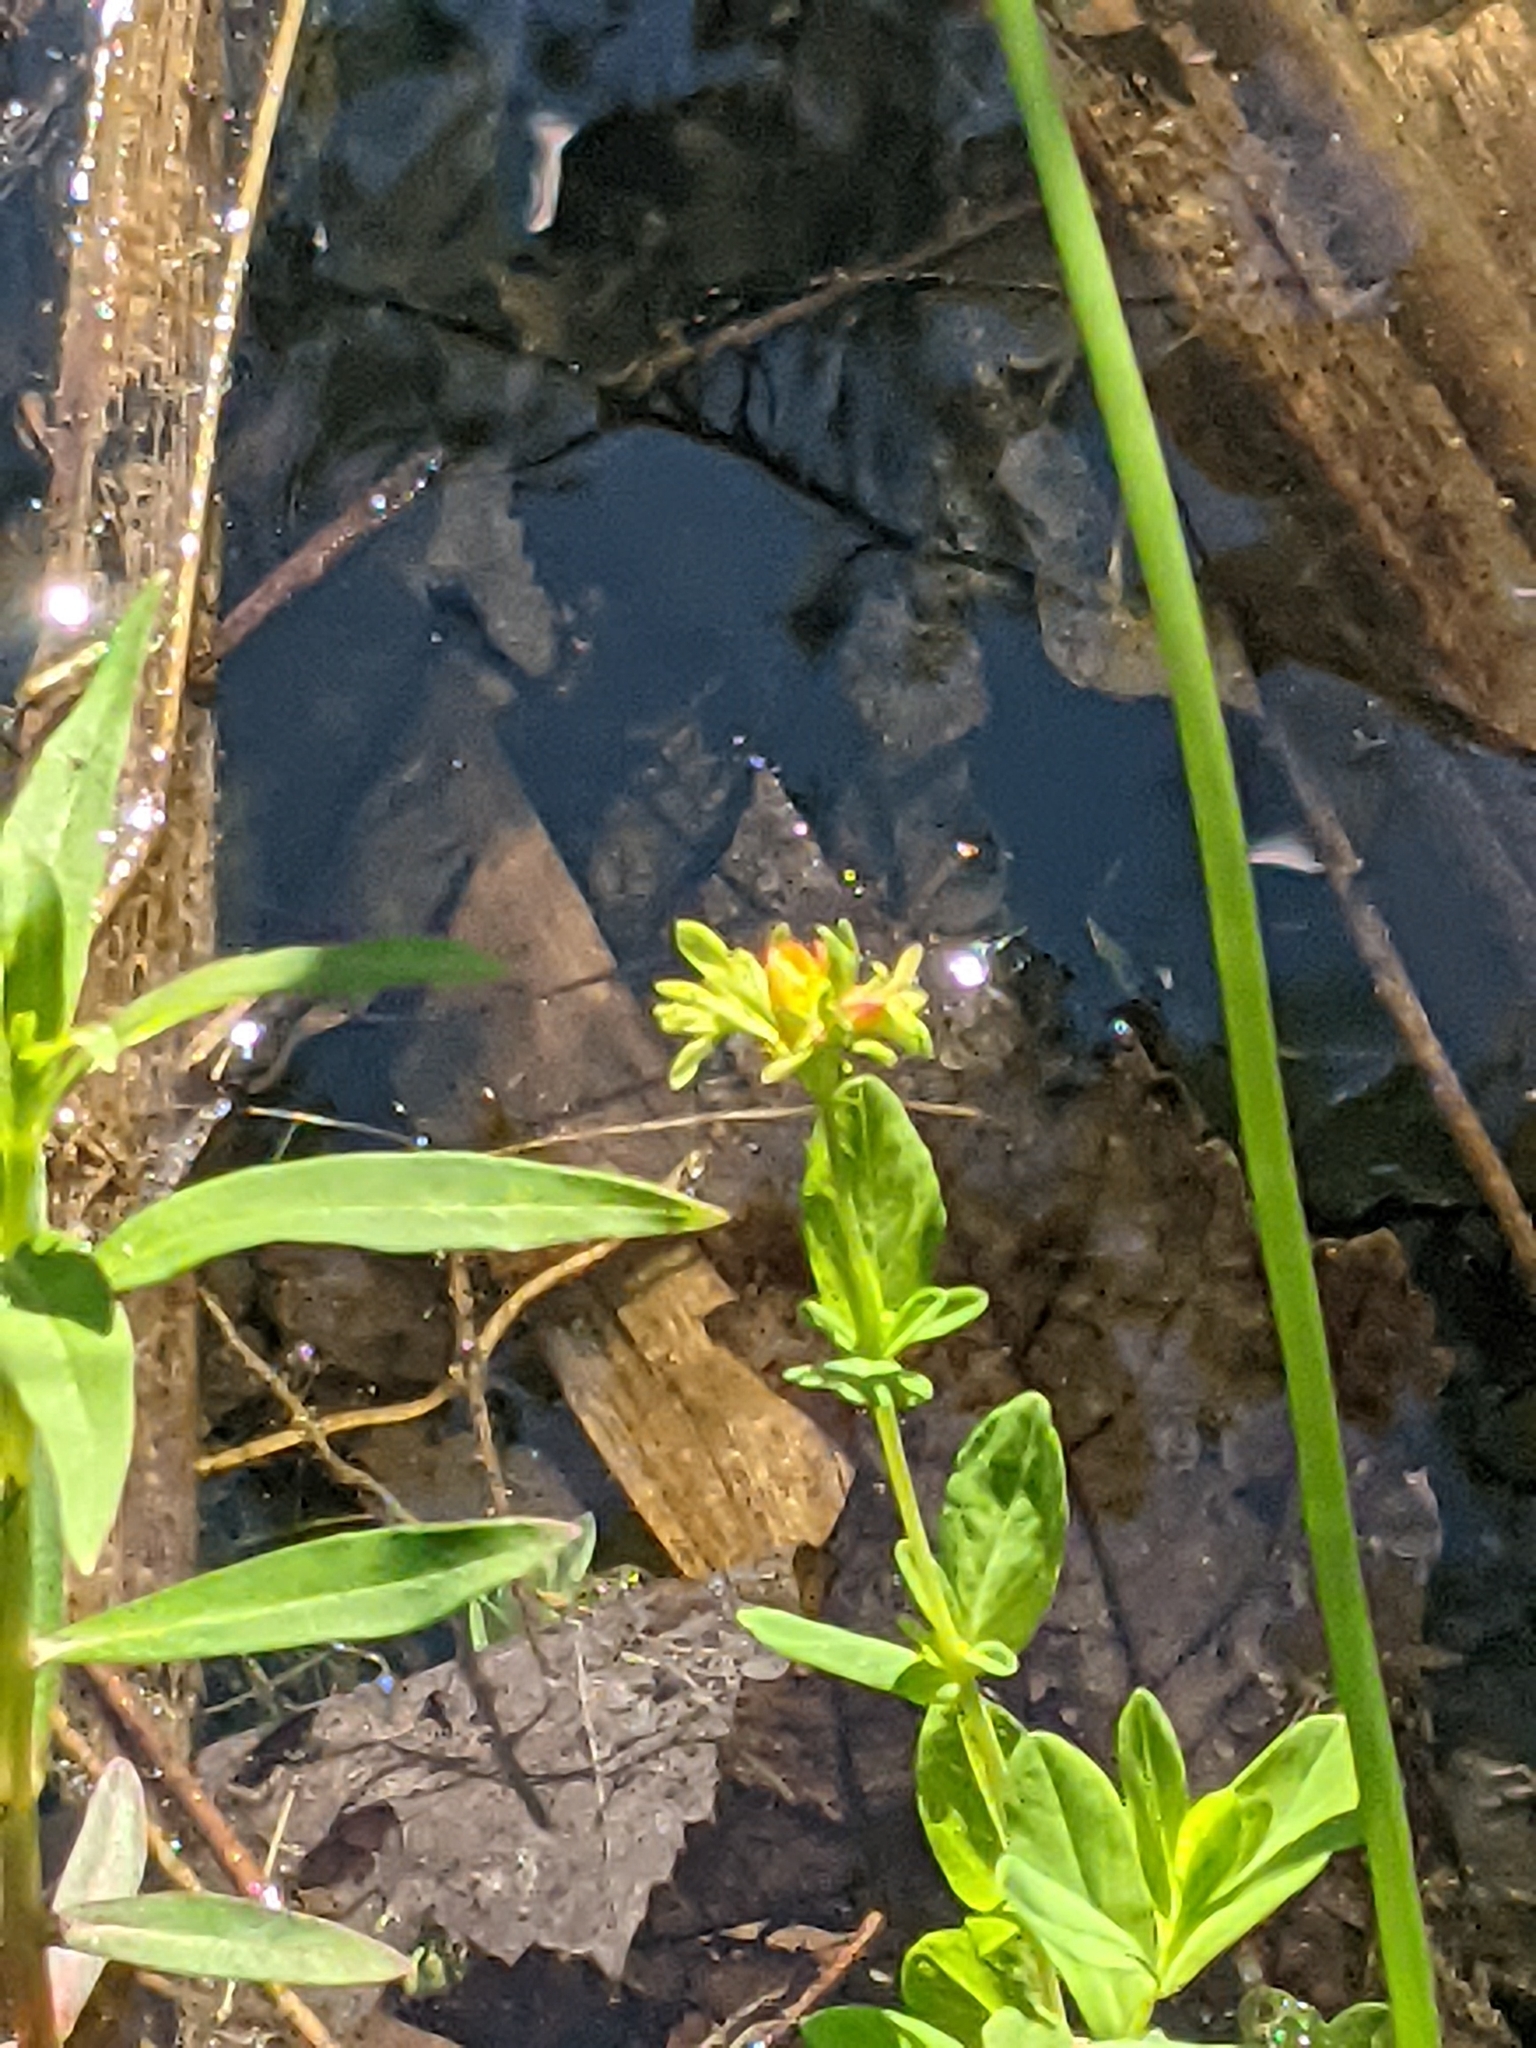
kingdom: Plantae
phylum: Tracheophyta
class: Magnoliopsida
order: Malpighiales
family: Hypericaceae
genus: Hypericum
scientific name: Hypericum ellipticum
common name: Elliptic st. john's-wort
